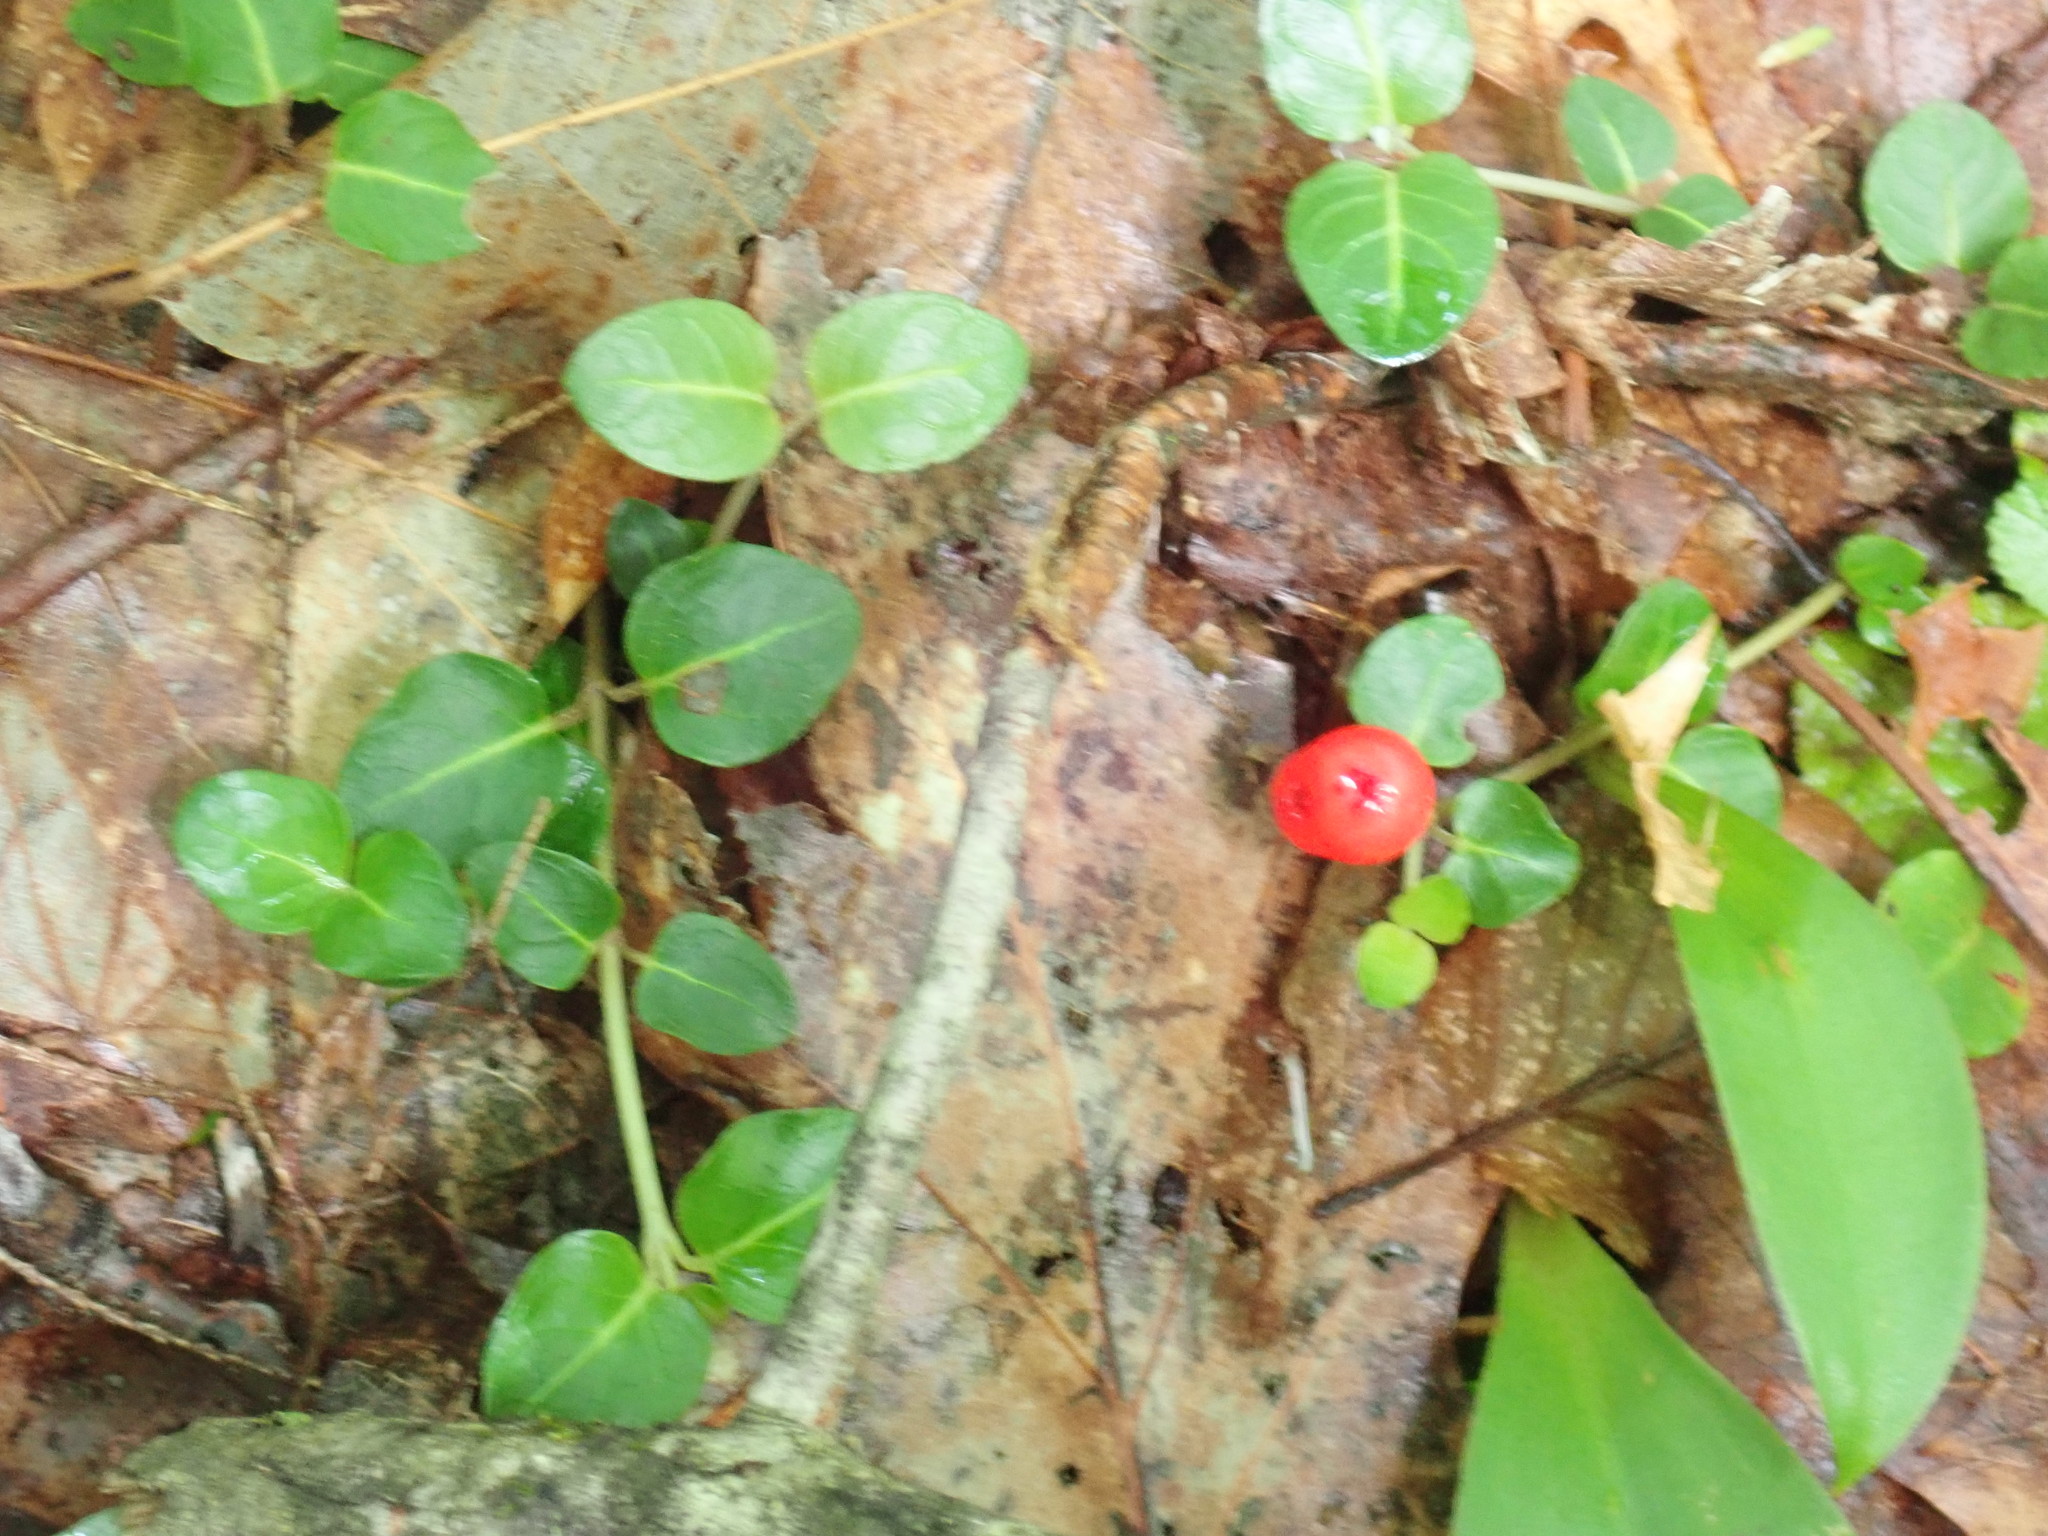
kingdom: Plantae
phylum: Tracheophyta
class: Magnoliopsida
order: Gentianales
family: Rubiaceae
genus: Mitchella
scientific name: Mitchella repens
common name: Partridge-berry
